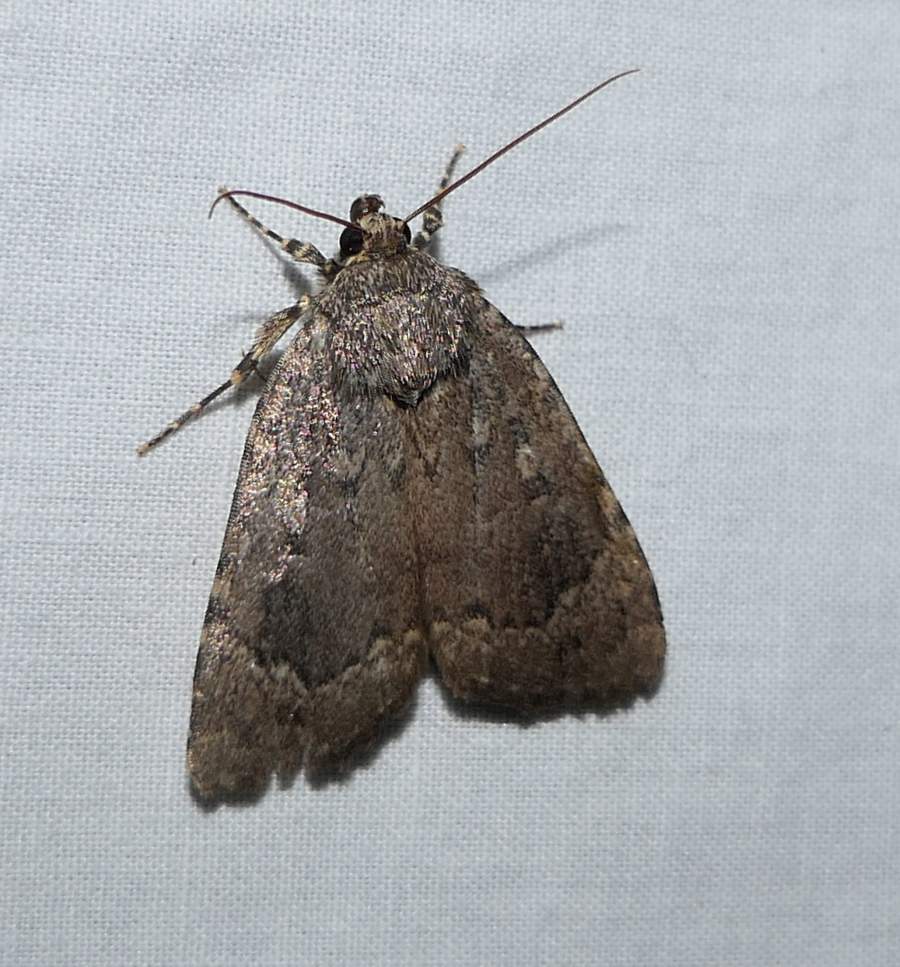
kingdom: Animalia
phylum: Arthropoda
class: Insecta
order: Lepidoptera
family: Noctuidae
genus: Amphipyra
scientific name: Amphipyra pyramidoides
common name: American copper underwing
